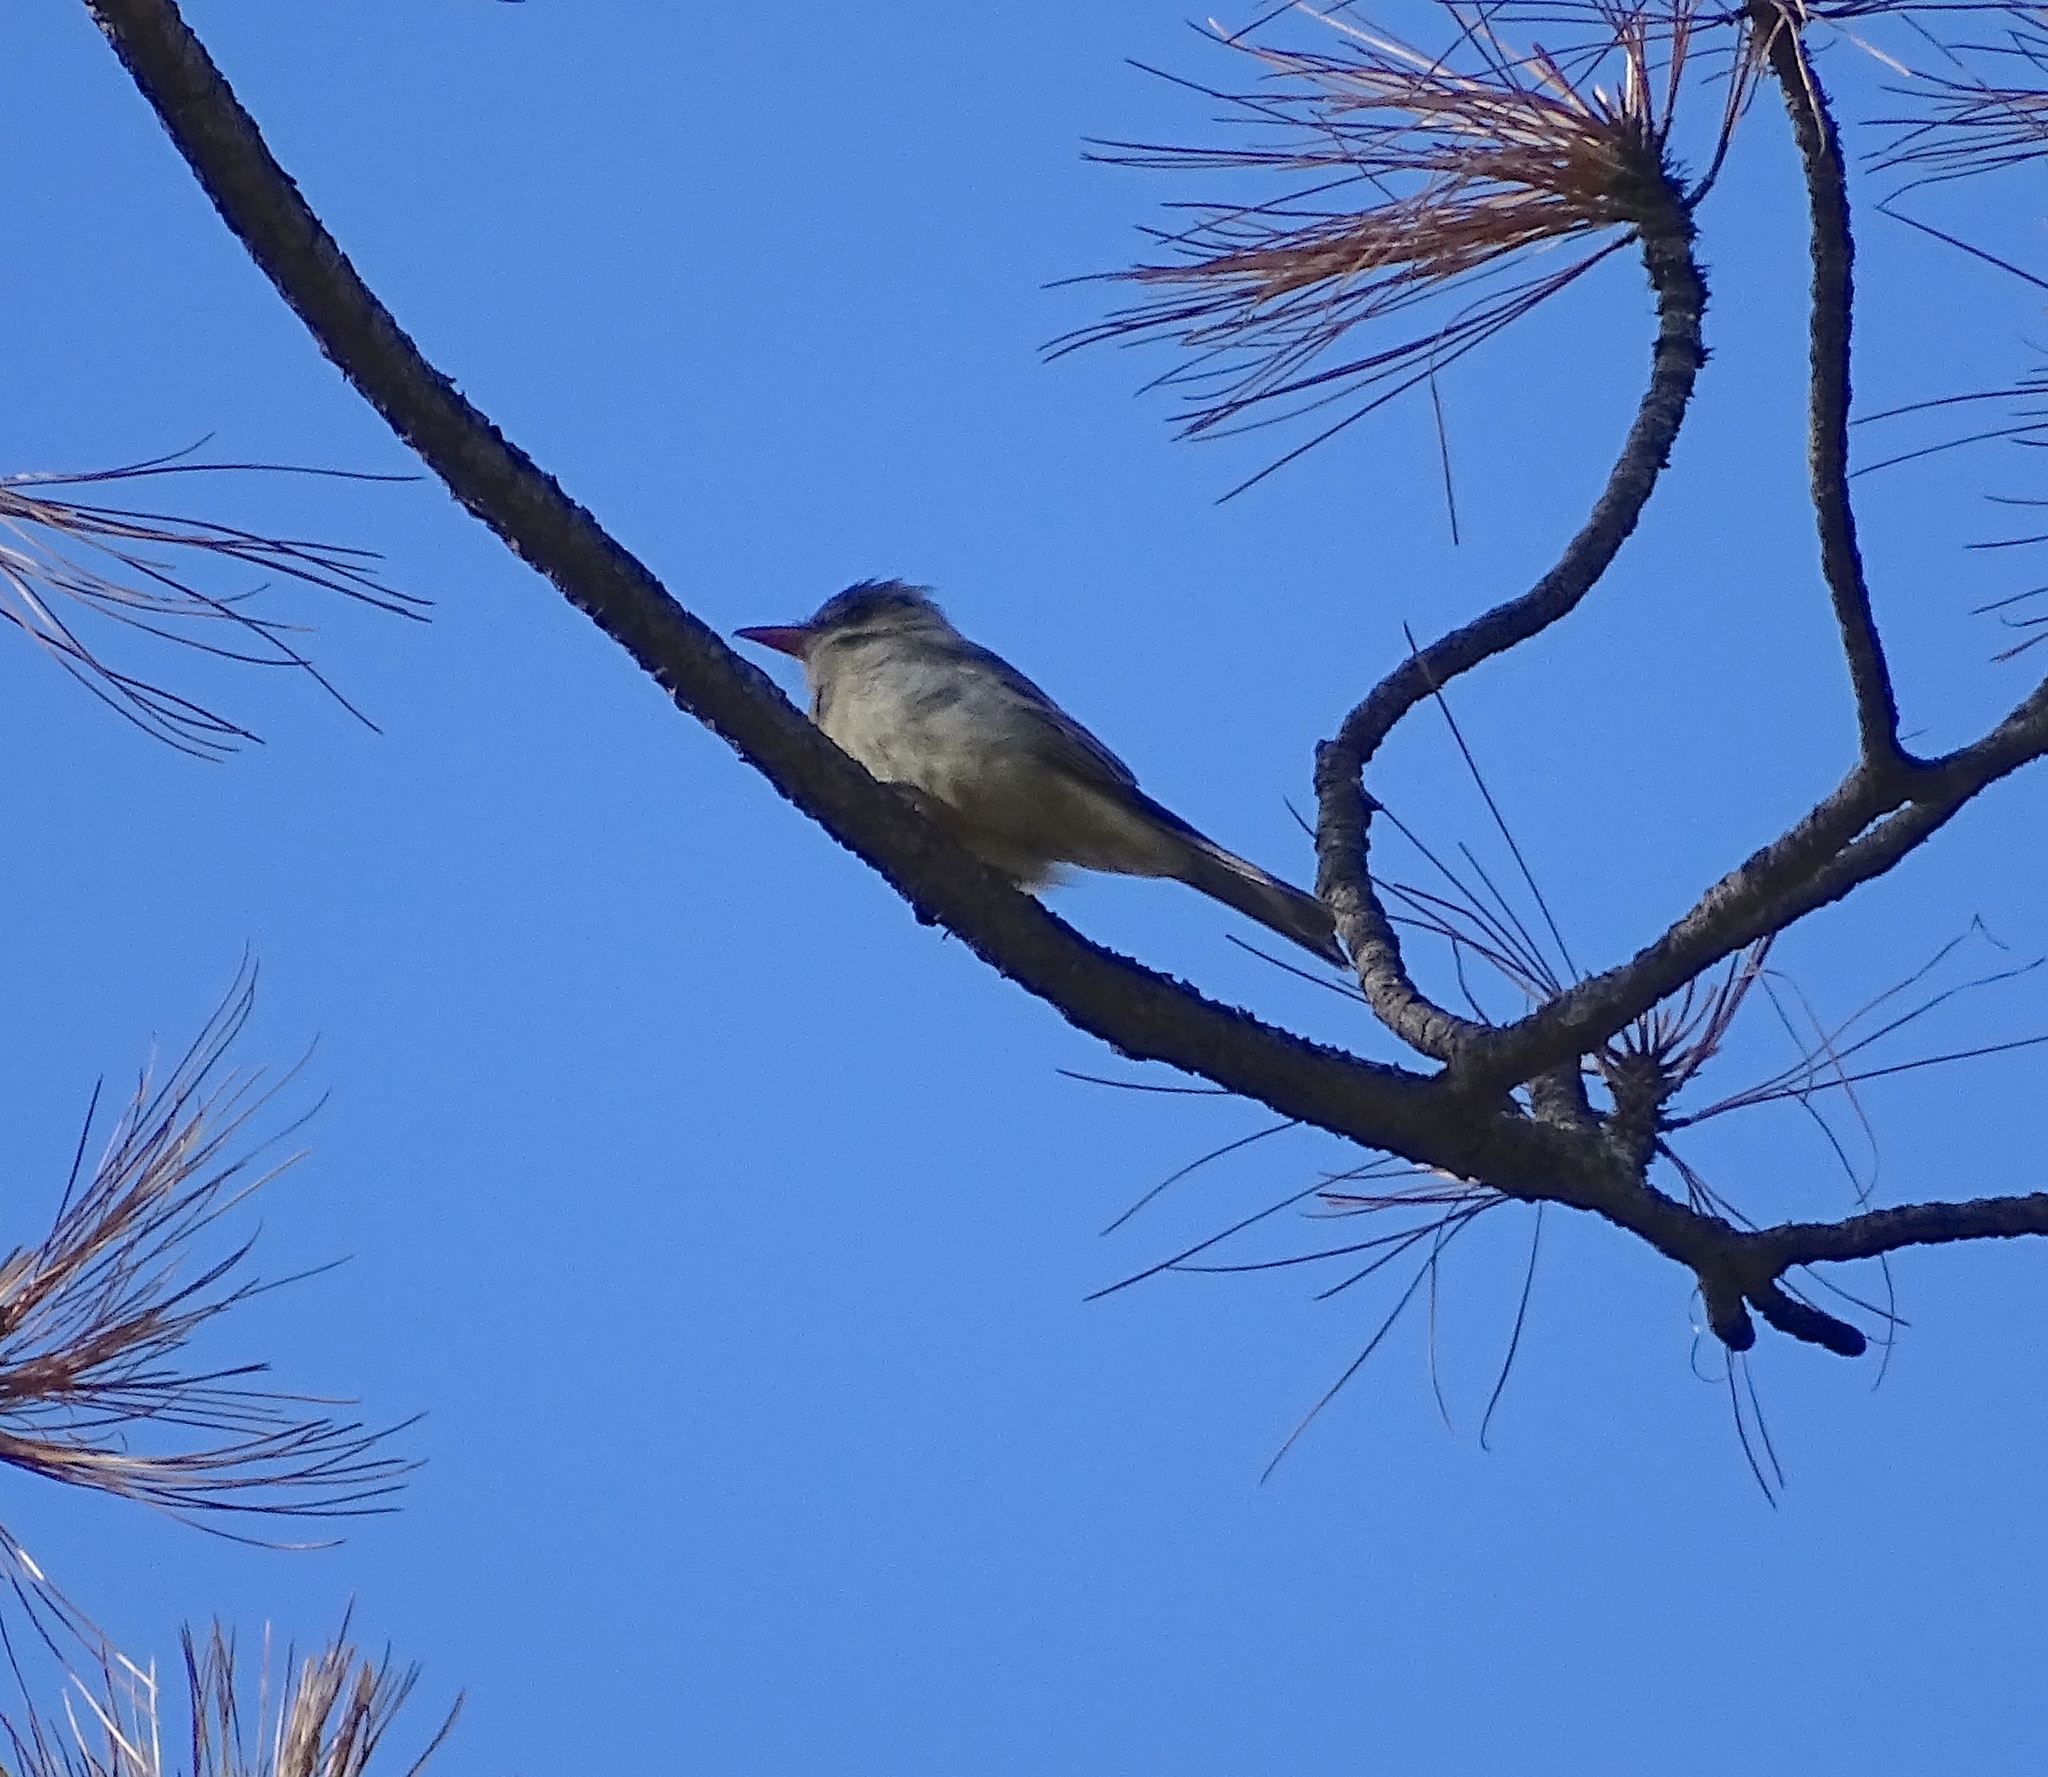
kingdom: Animalia
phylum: Chordata
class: Aves
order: Passeriformes
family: Tyrannidae
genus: Contopus
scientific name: Contopus pertinax
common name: Greater pewee
